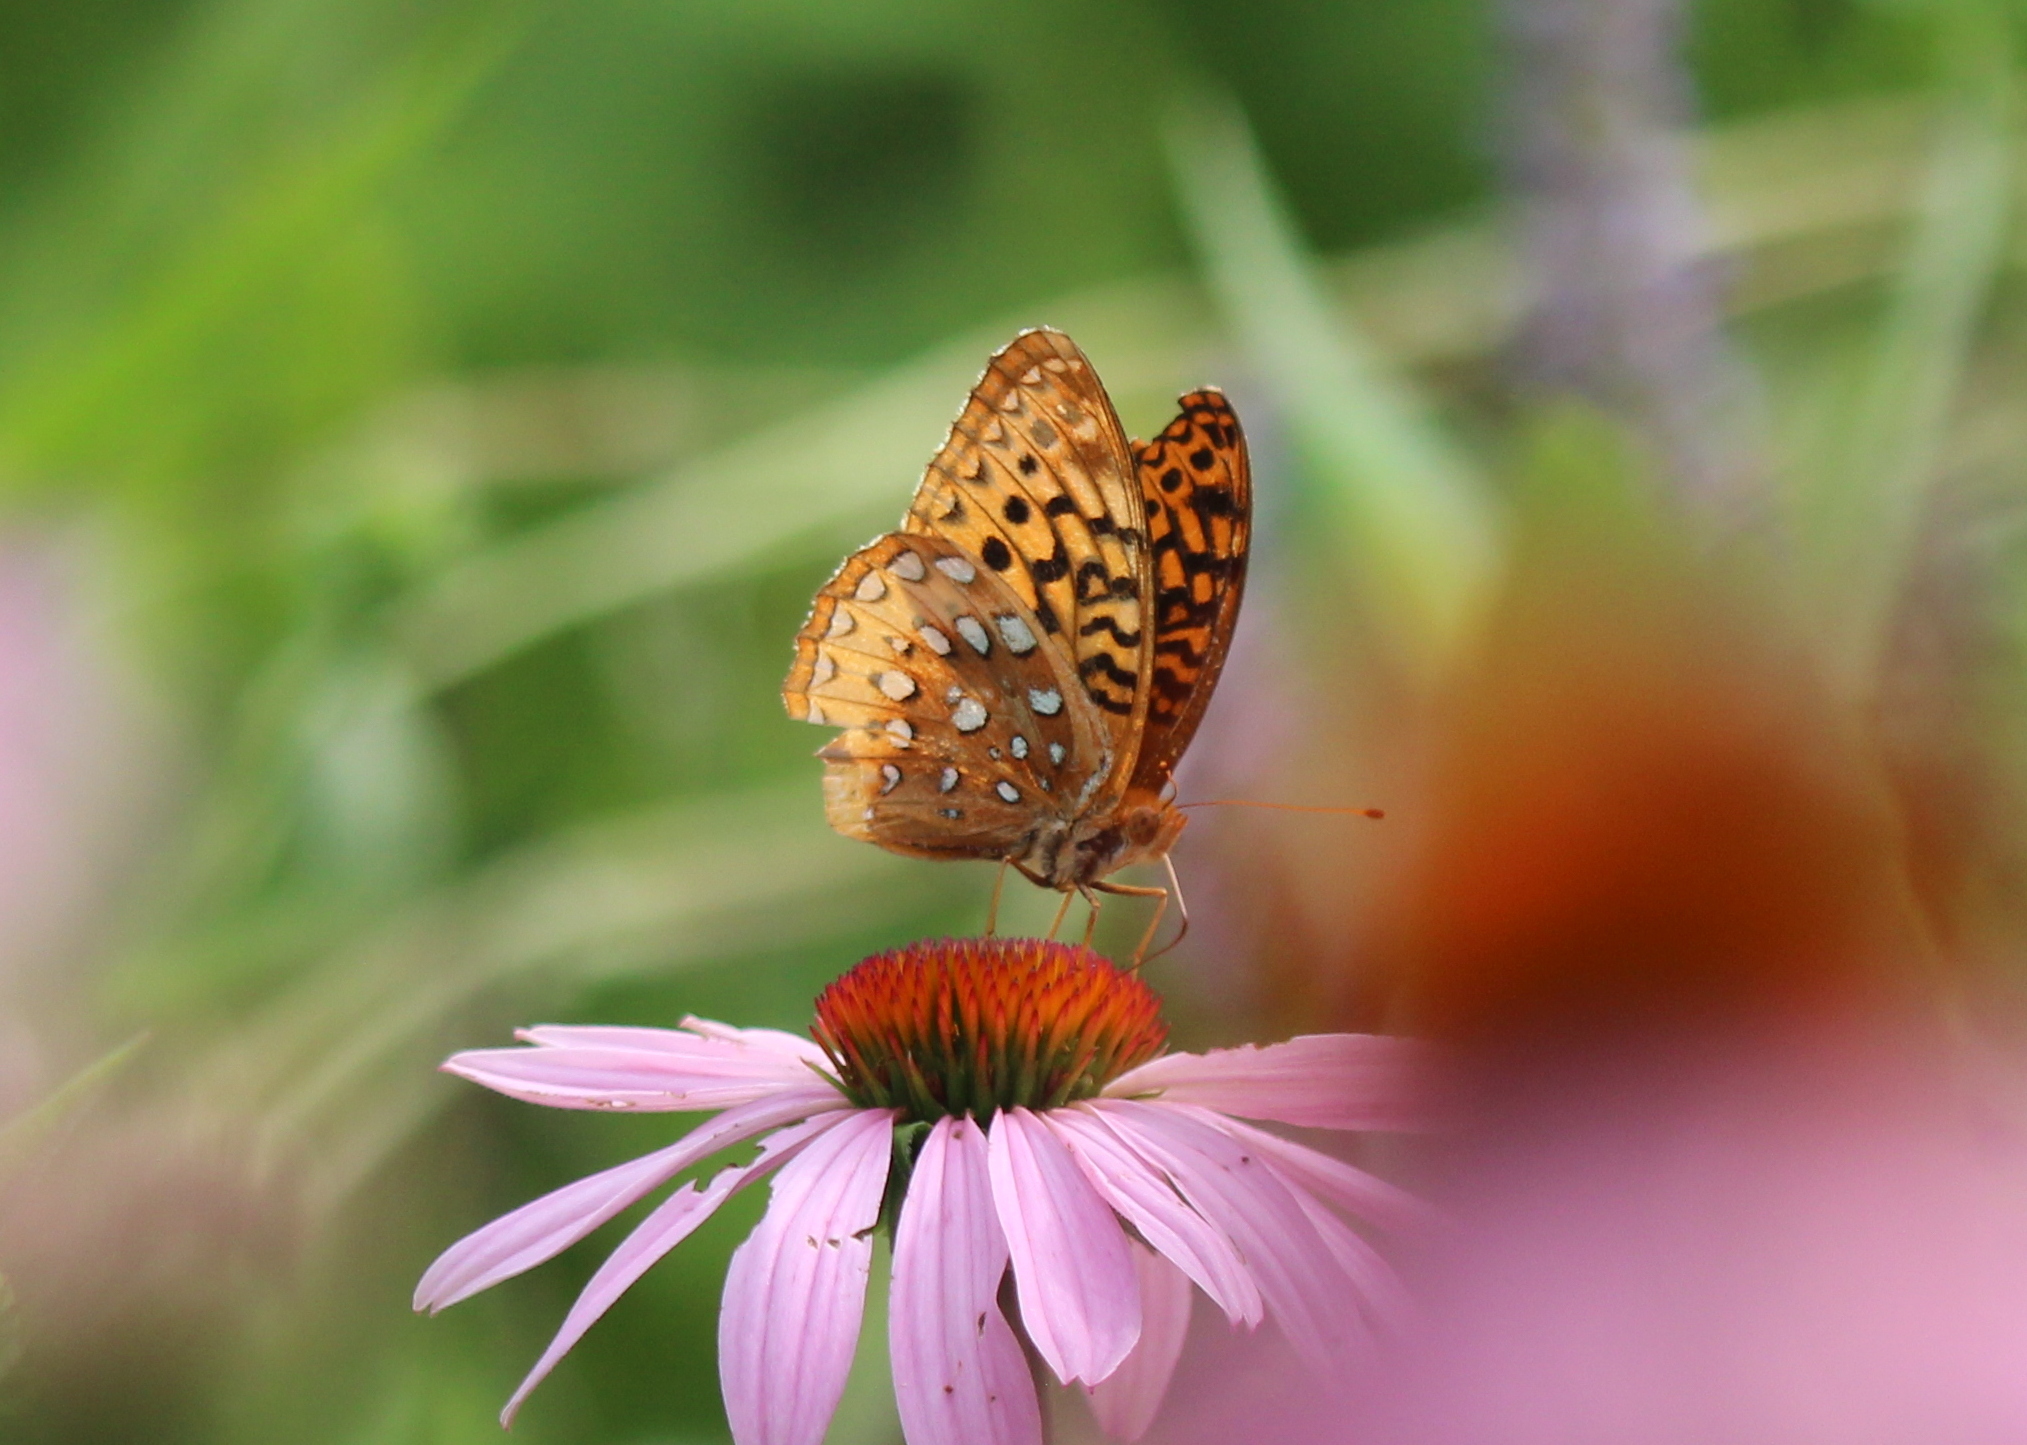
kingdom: Animalia
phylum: Arthropoda
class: Insecta
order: Lepidoptera
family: Nymphalidae
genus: Speyeria
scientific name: Speyeria cybele
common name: Great spangled fritillary
